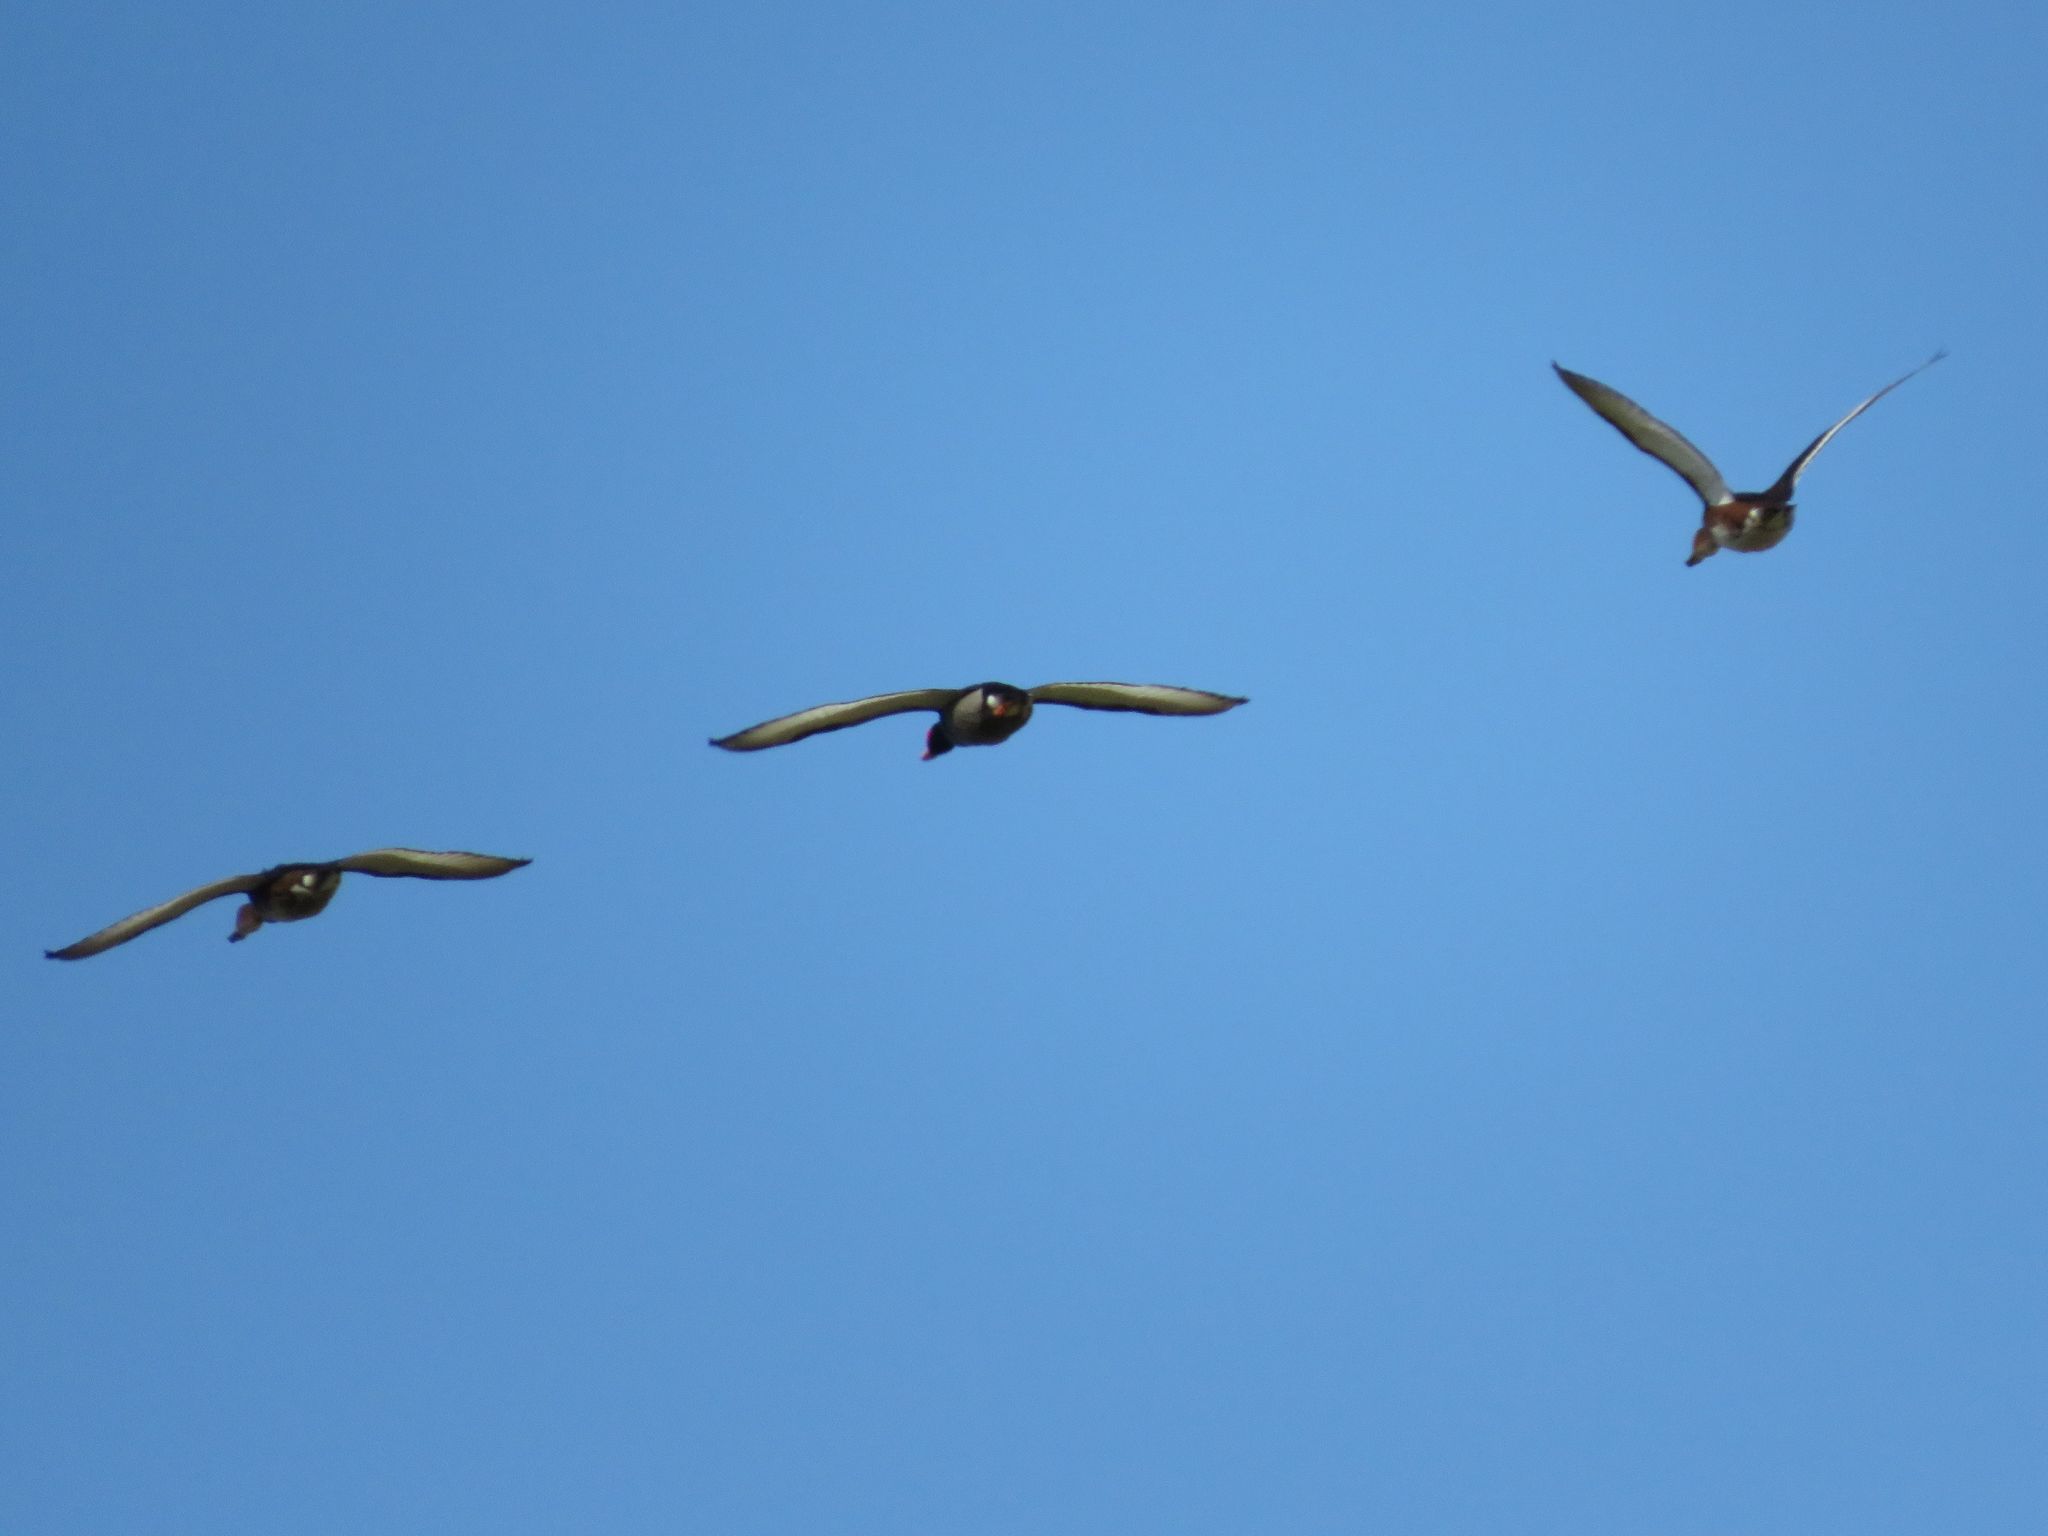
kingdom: Animalia
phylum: Chordata
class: Aves
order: Anseriformes
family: Anatidae
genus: Netta
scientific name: Netta peposaca
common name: Rosy-billed pochard
